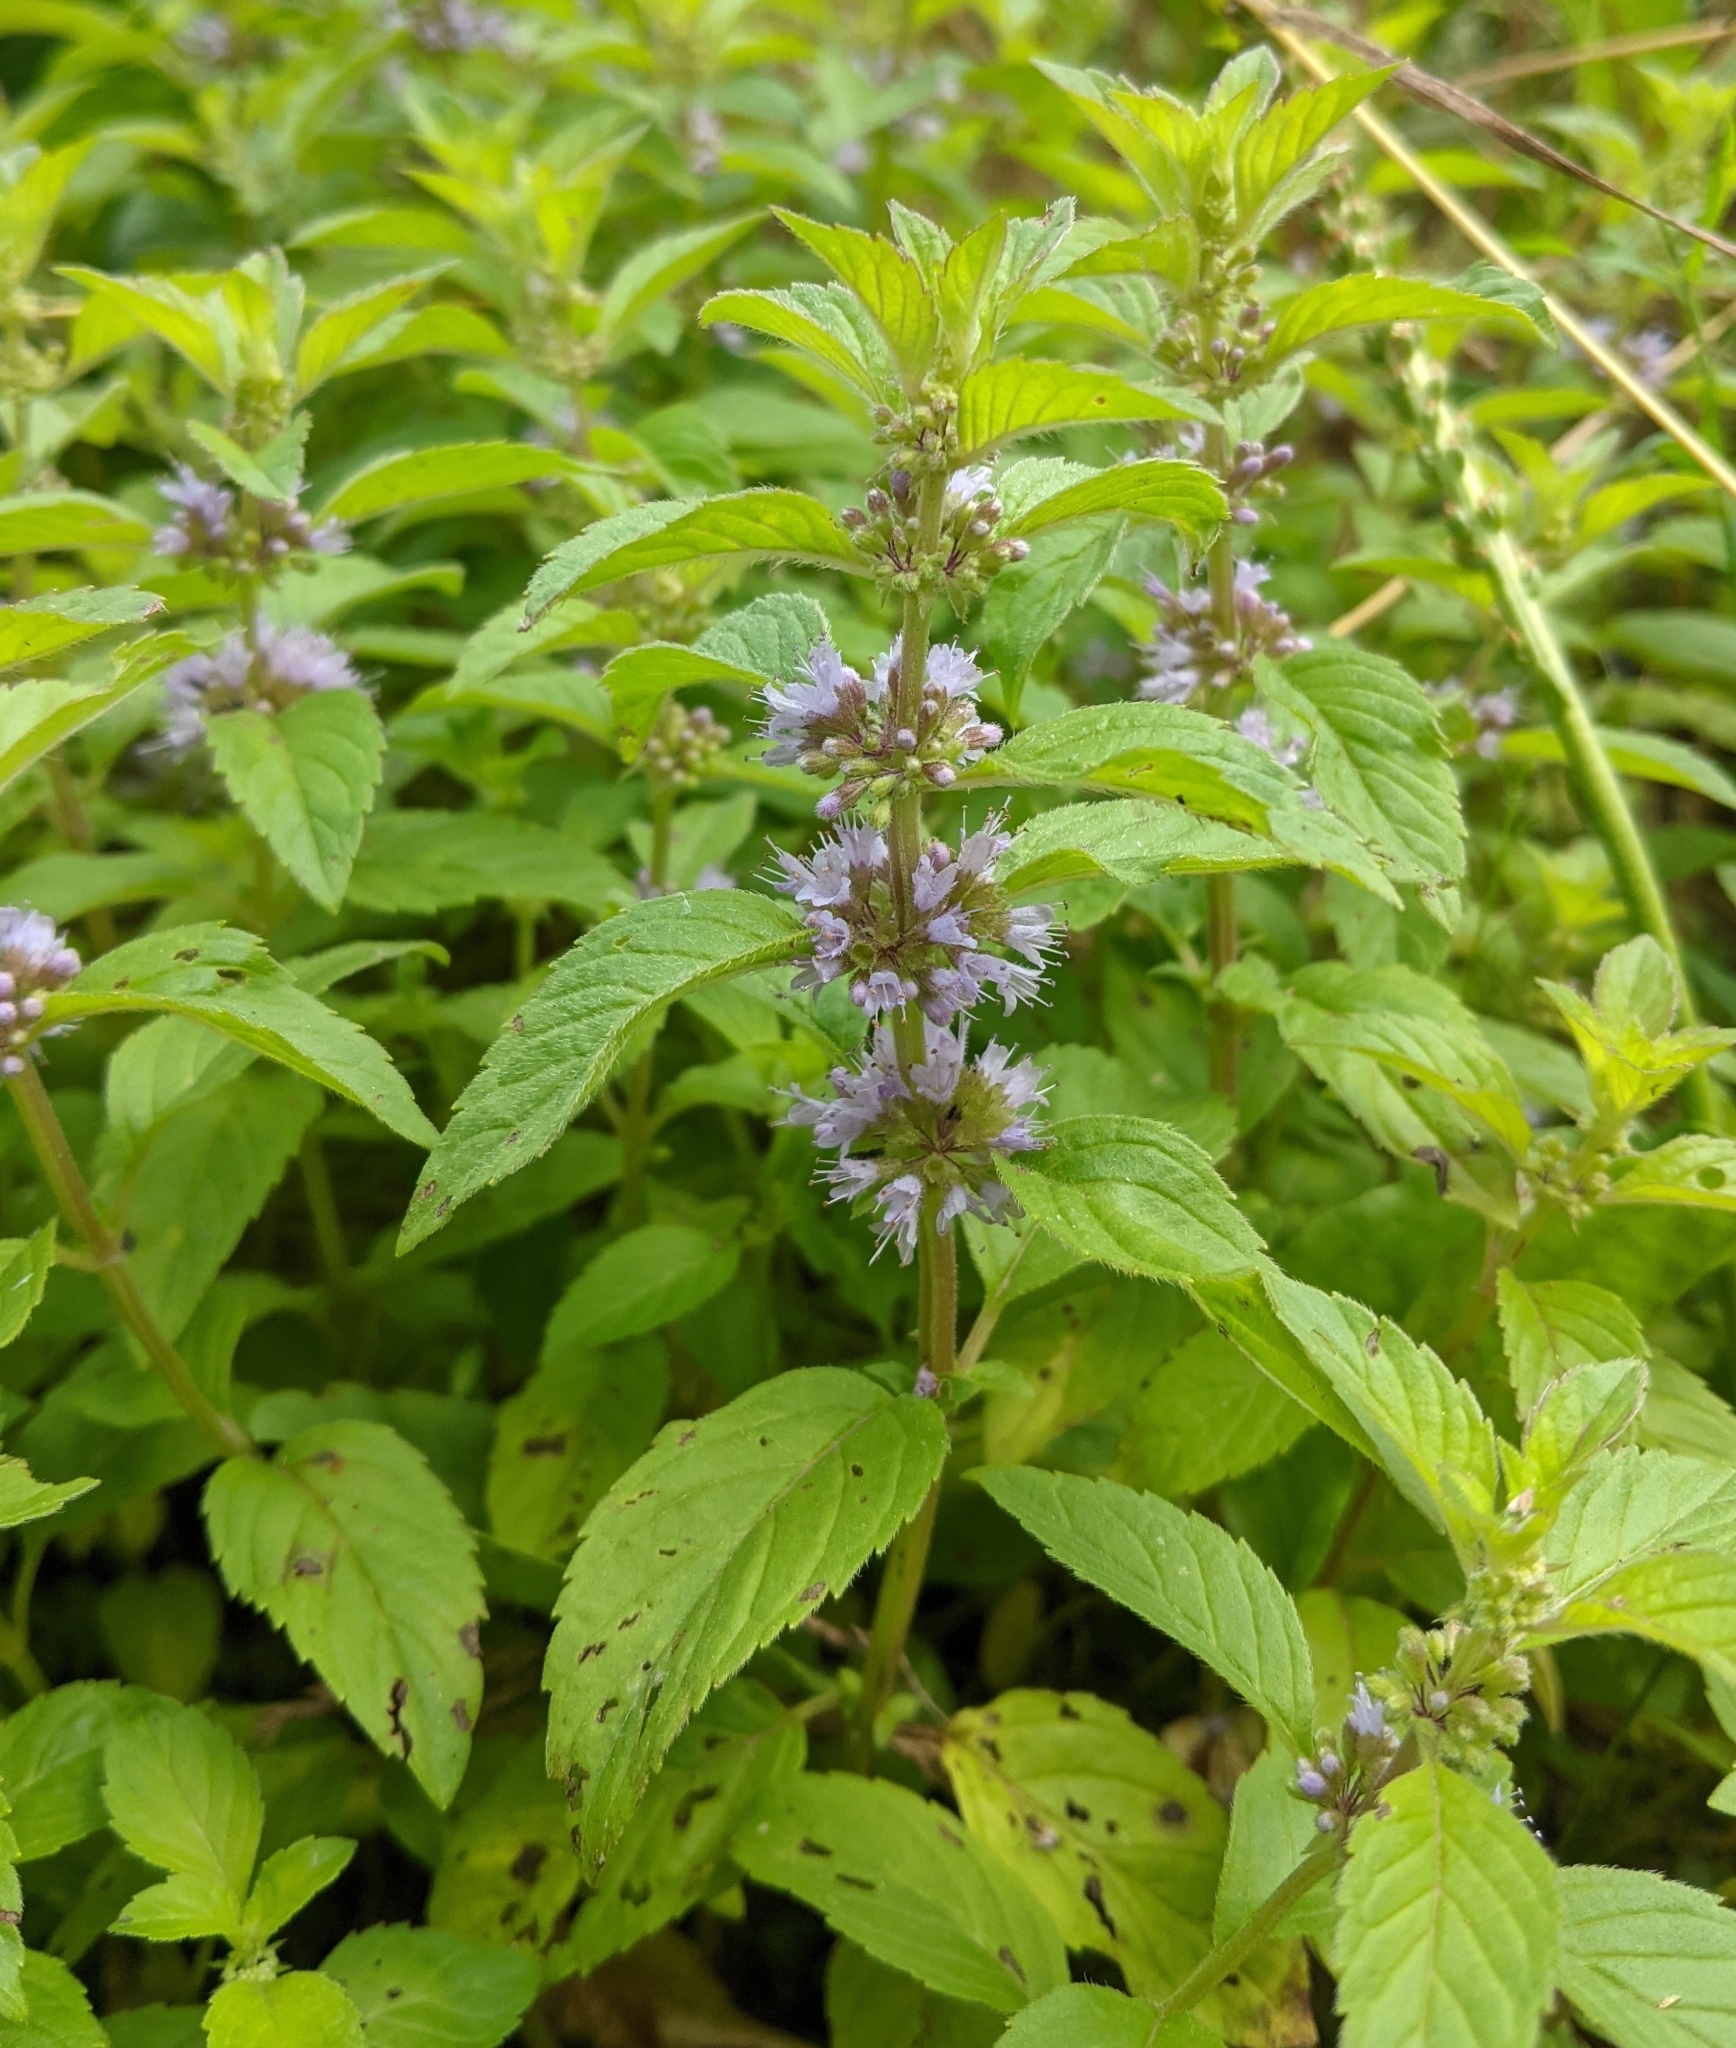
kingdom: Plantae
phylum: Tracheophyta
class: Magnoliopsida
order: Lamiales
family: Lamiaceae
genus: Mentha
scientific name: Mentha arvensis
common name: Corn mint
